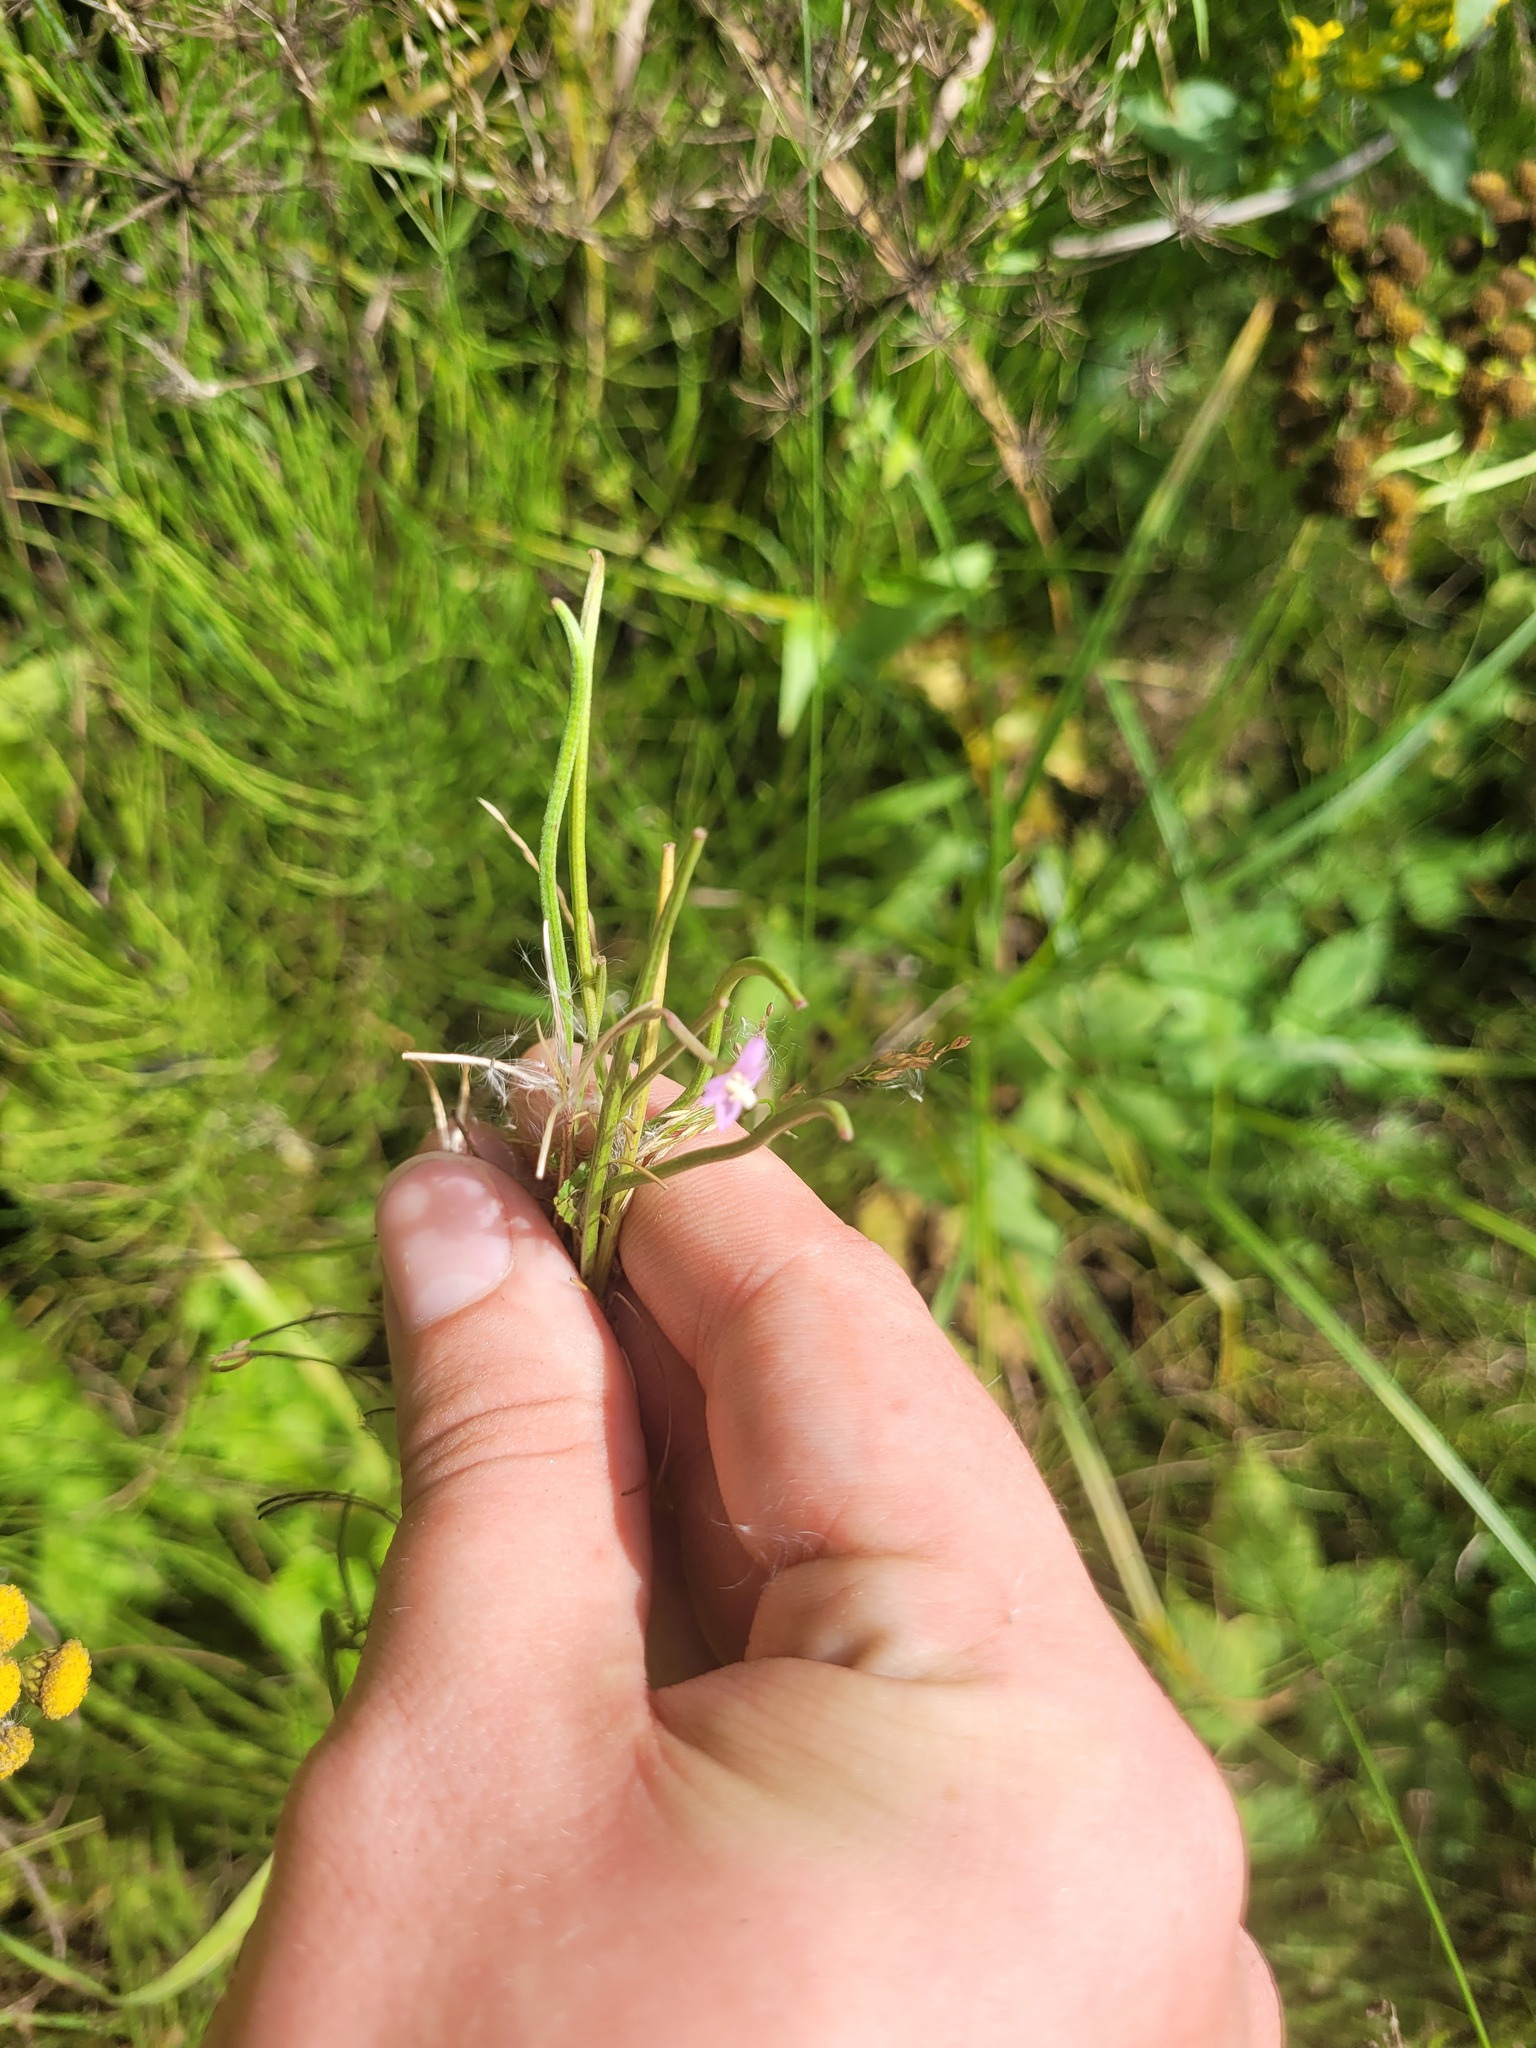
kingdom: Plantae
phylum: Tracheophyta
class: Magnoliopsida
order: Myrtales
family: Onagraceae
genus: Epilobium
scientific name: Epilobium tetragonum
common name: Square-stemmed willowherb
